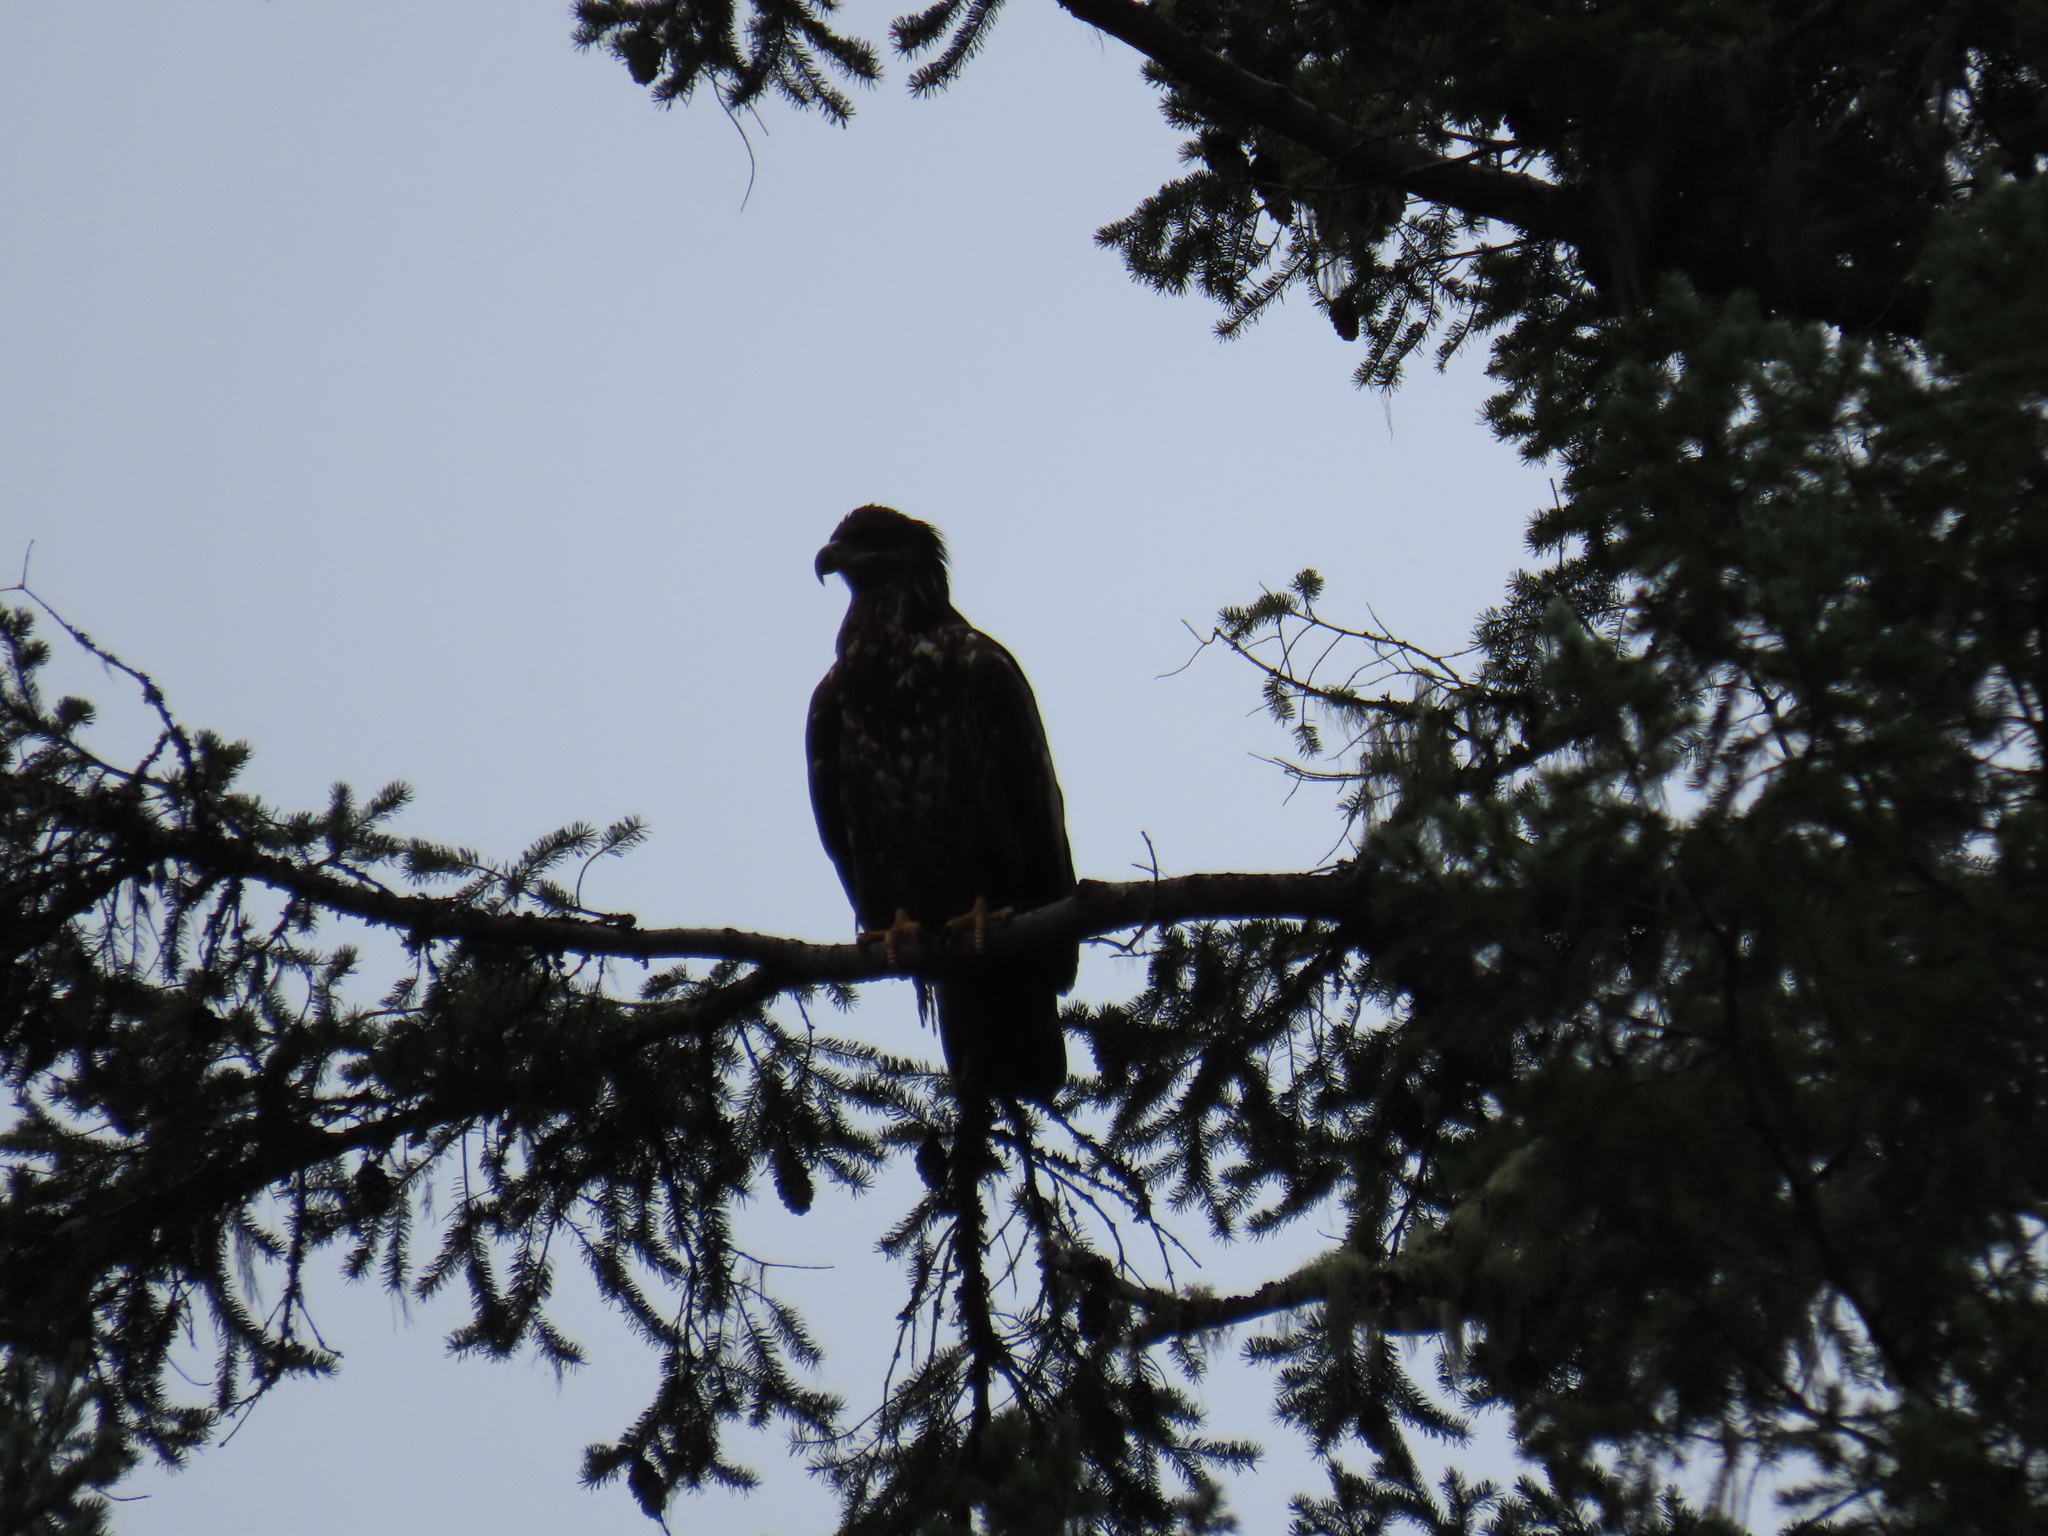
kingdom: Animalia
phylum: Chordata
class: Aves
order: Accipitriformes
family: Accipitridae
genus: Haliaeetus
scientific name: Haliaeetus leucocephalus
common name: Bald eagle
